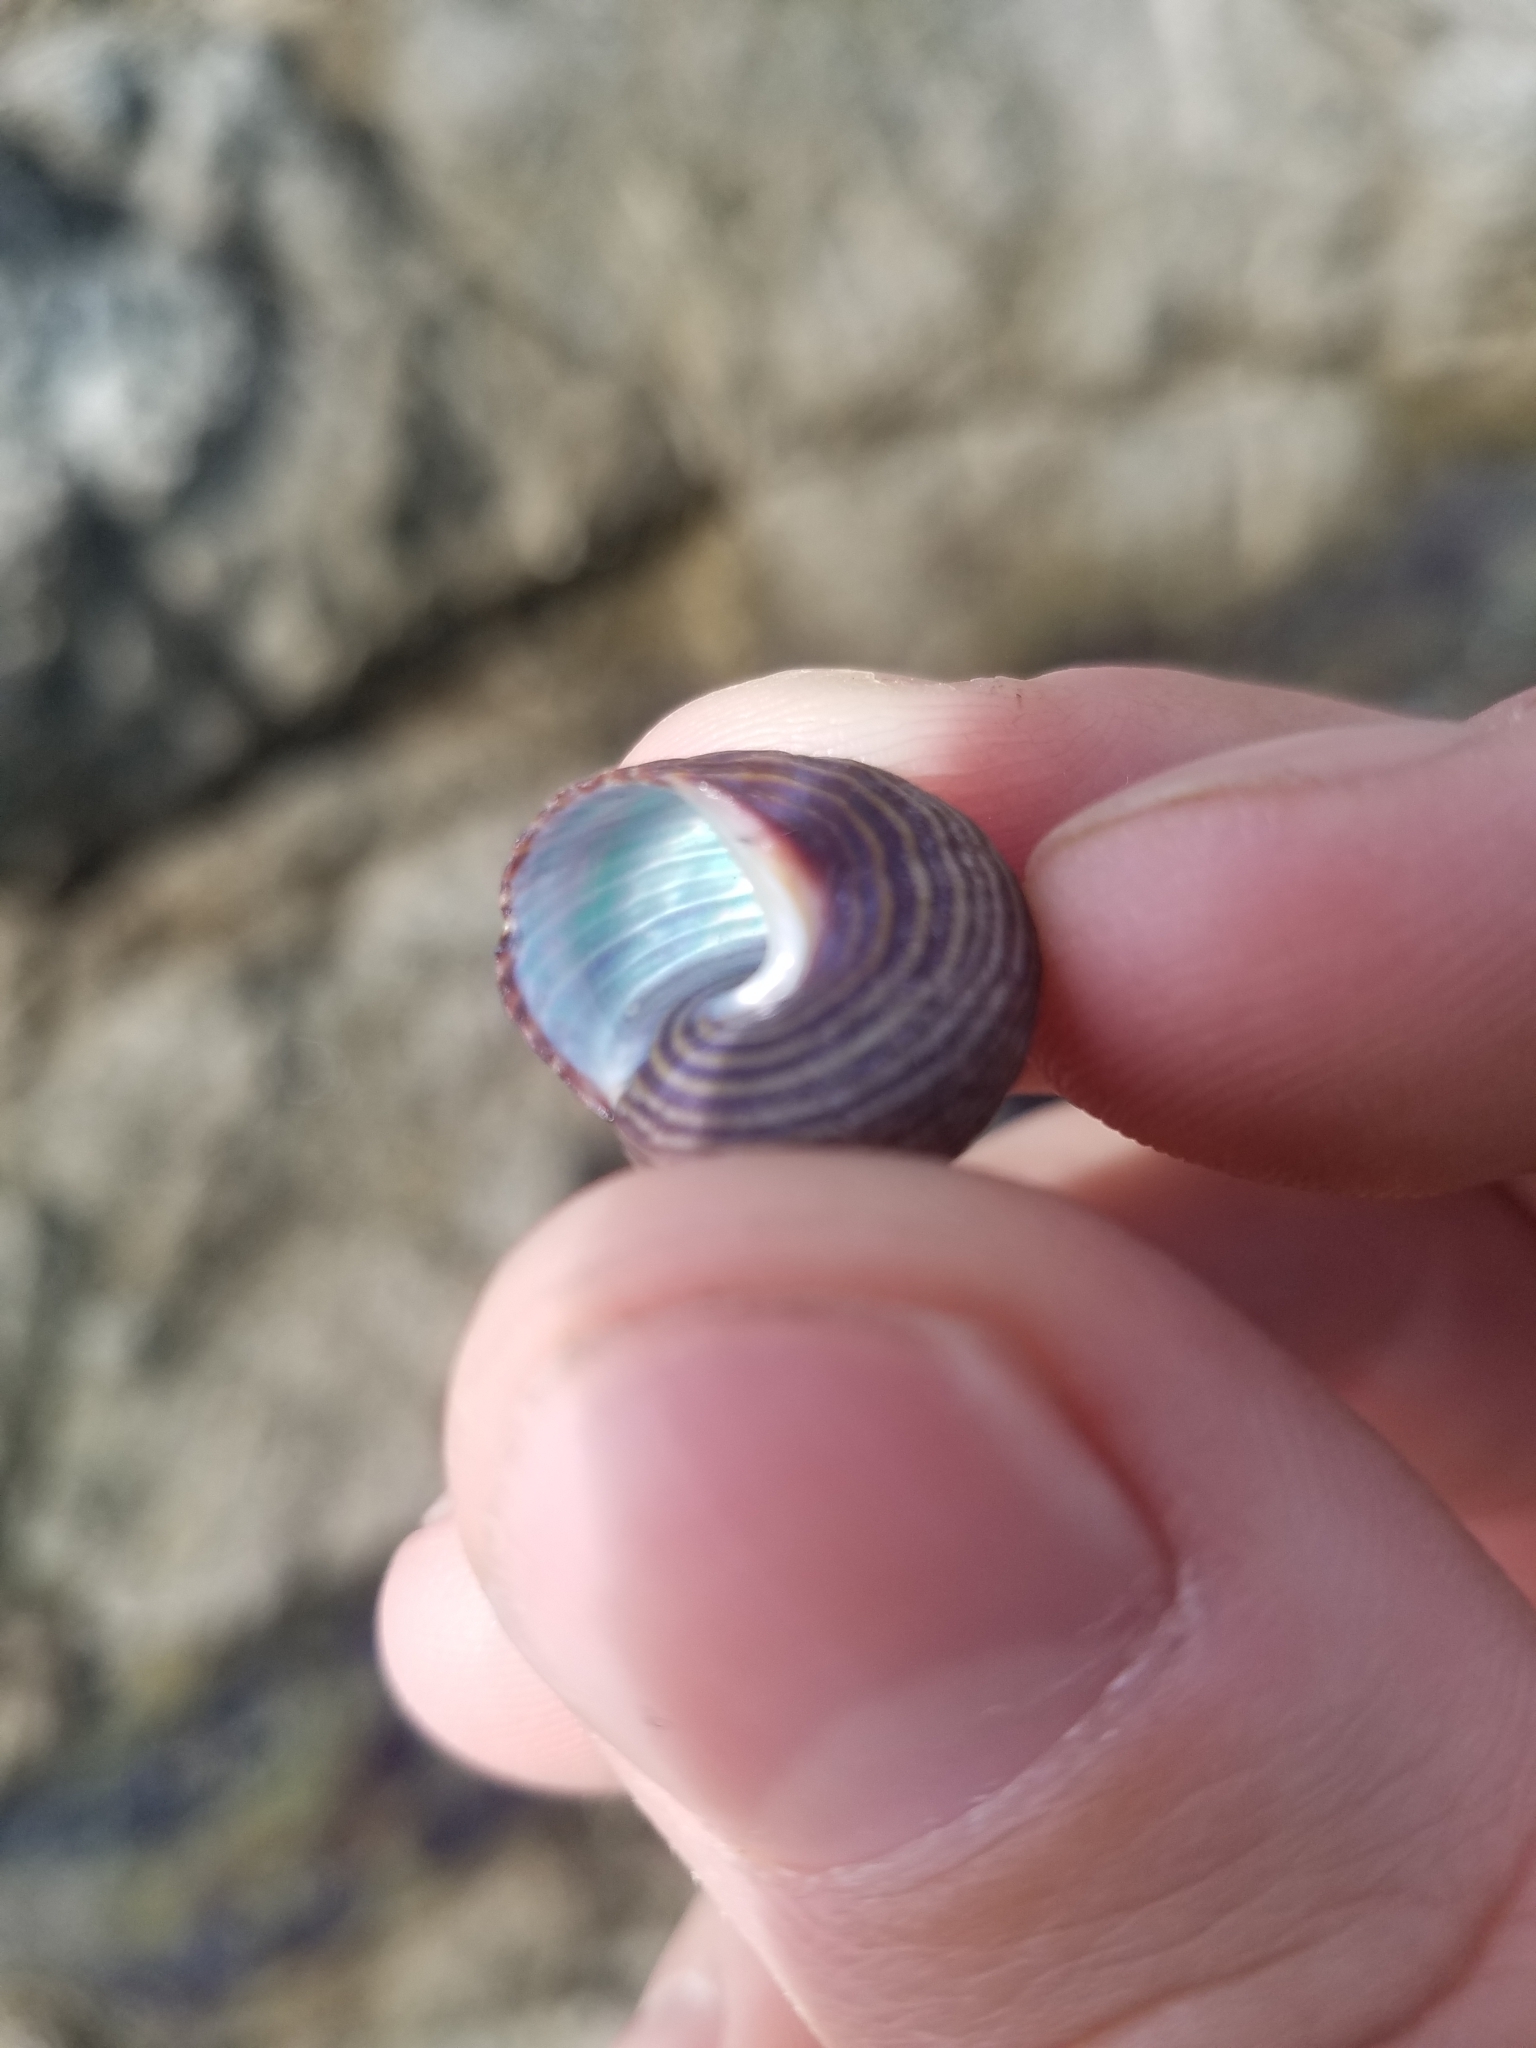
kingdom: Animalia
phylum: Mollusca
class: Gastropoda
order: Trochida
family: Calliostomatidae
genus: Calliostoma
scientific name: Calliostoma ligatum
